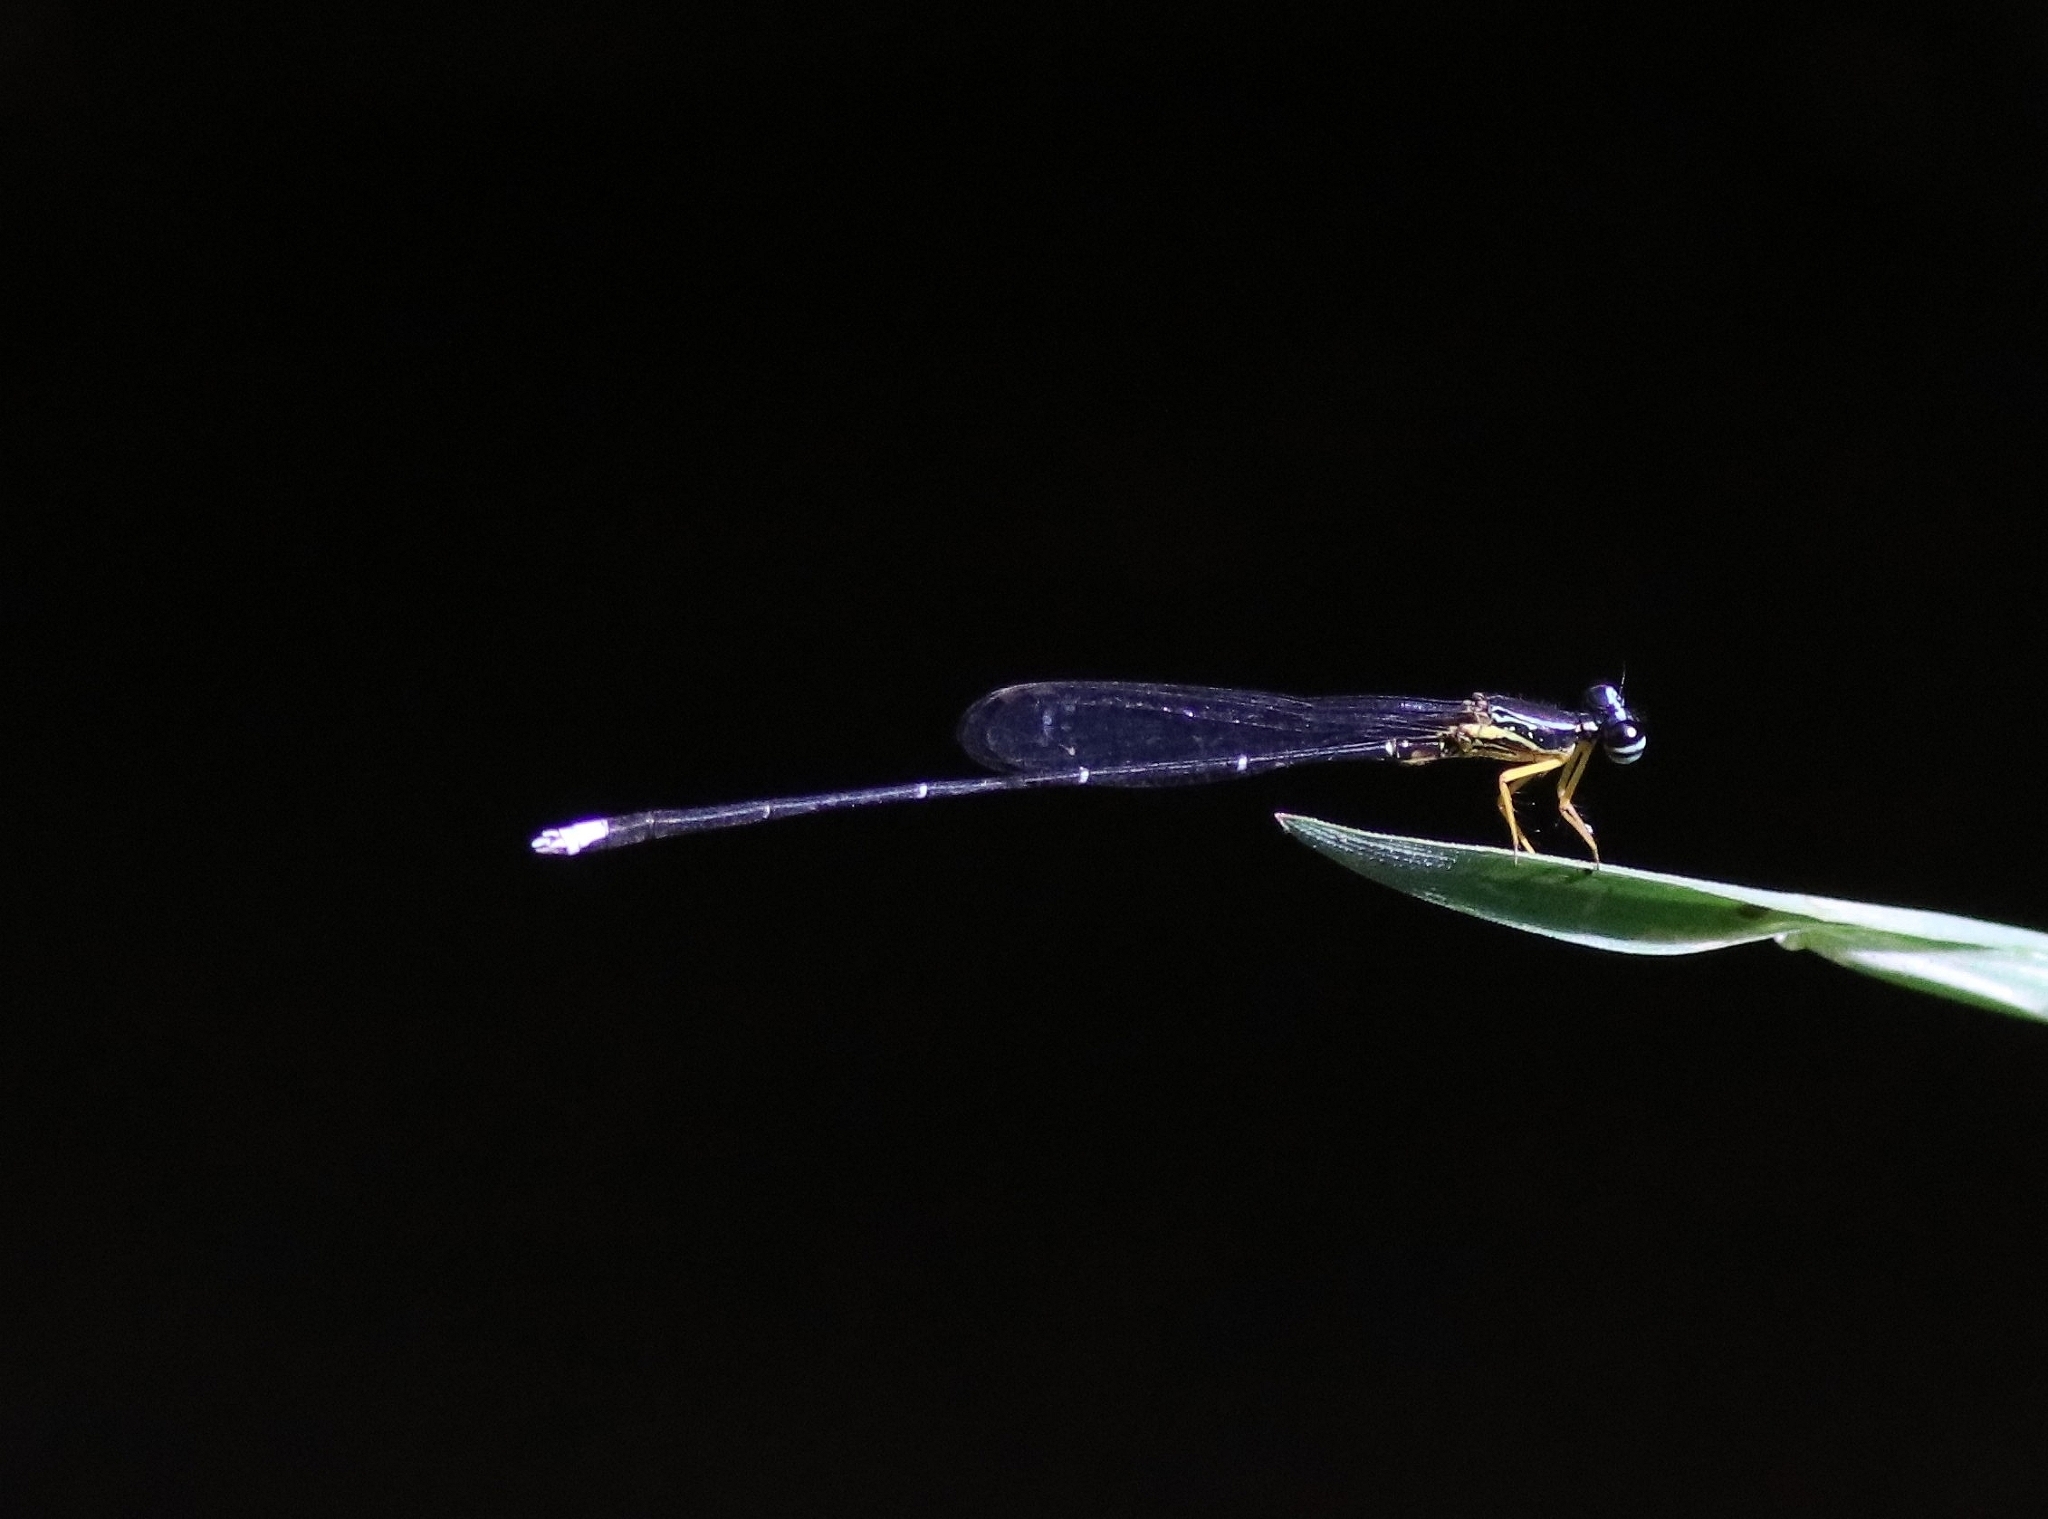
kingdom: Animalia
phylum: Arthropoda
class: Insecta
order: Odonata
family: Platycnemididae
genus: Copera
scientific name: Copera vittata
